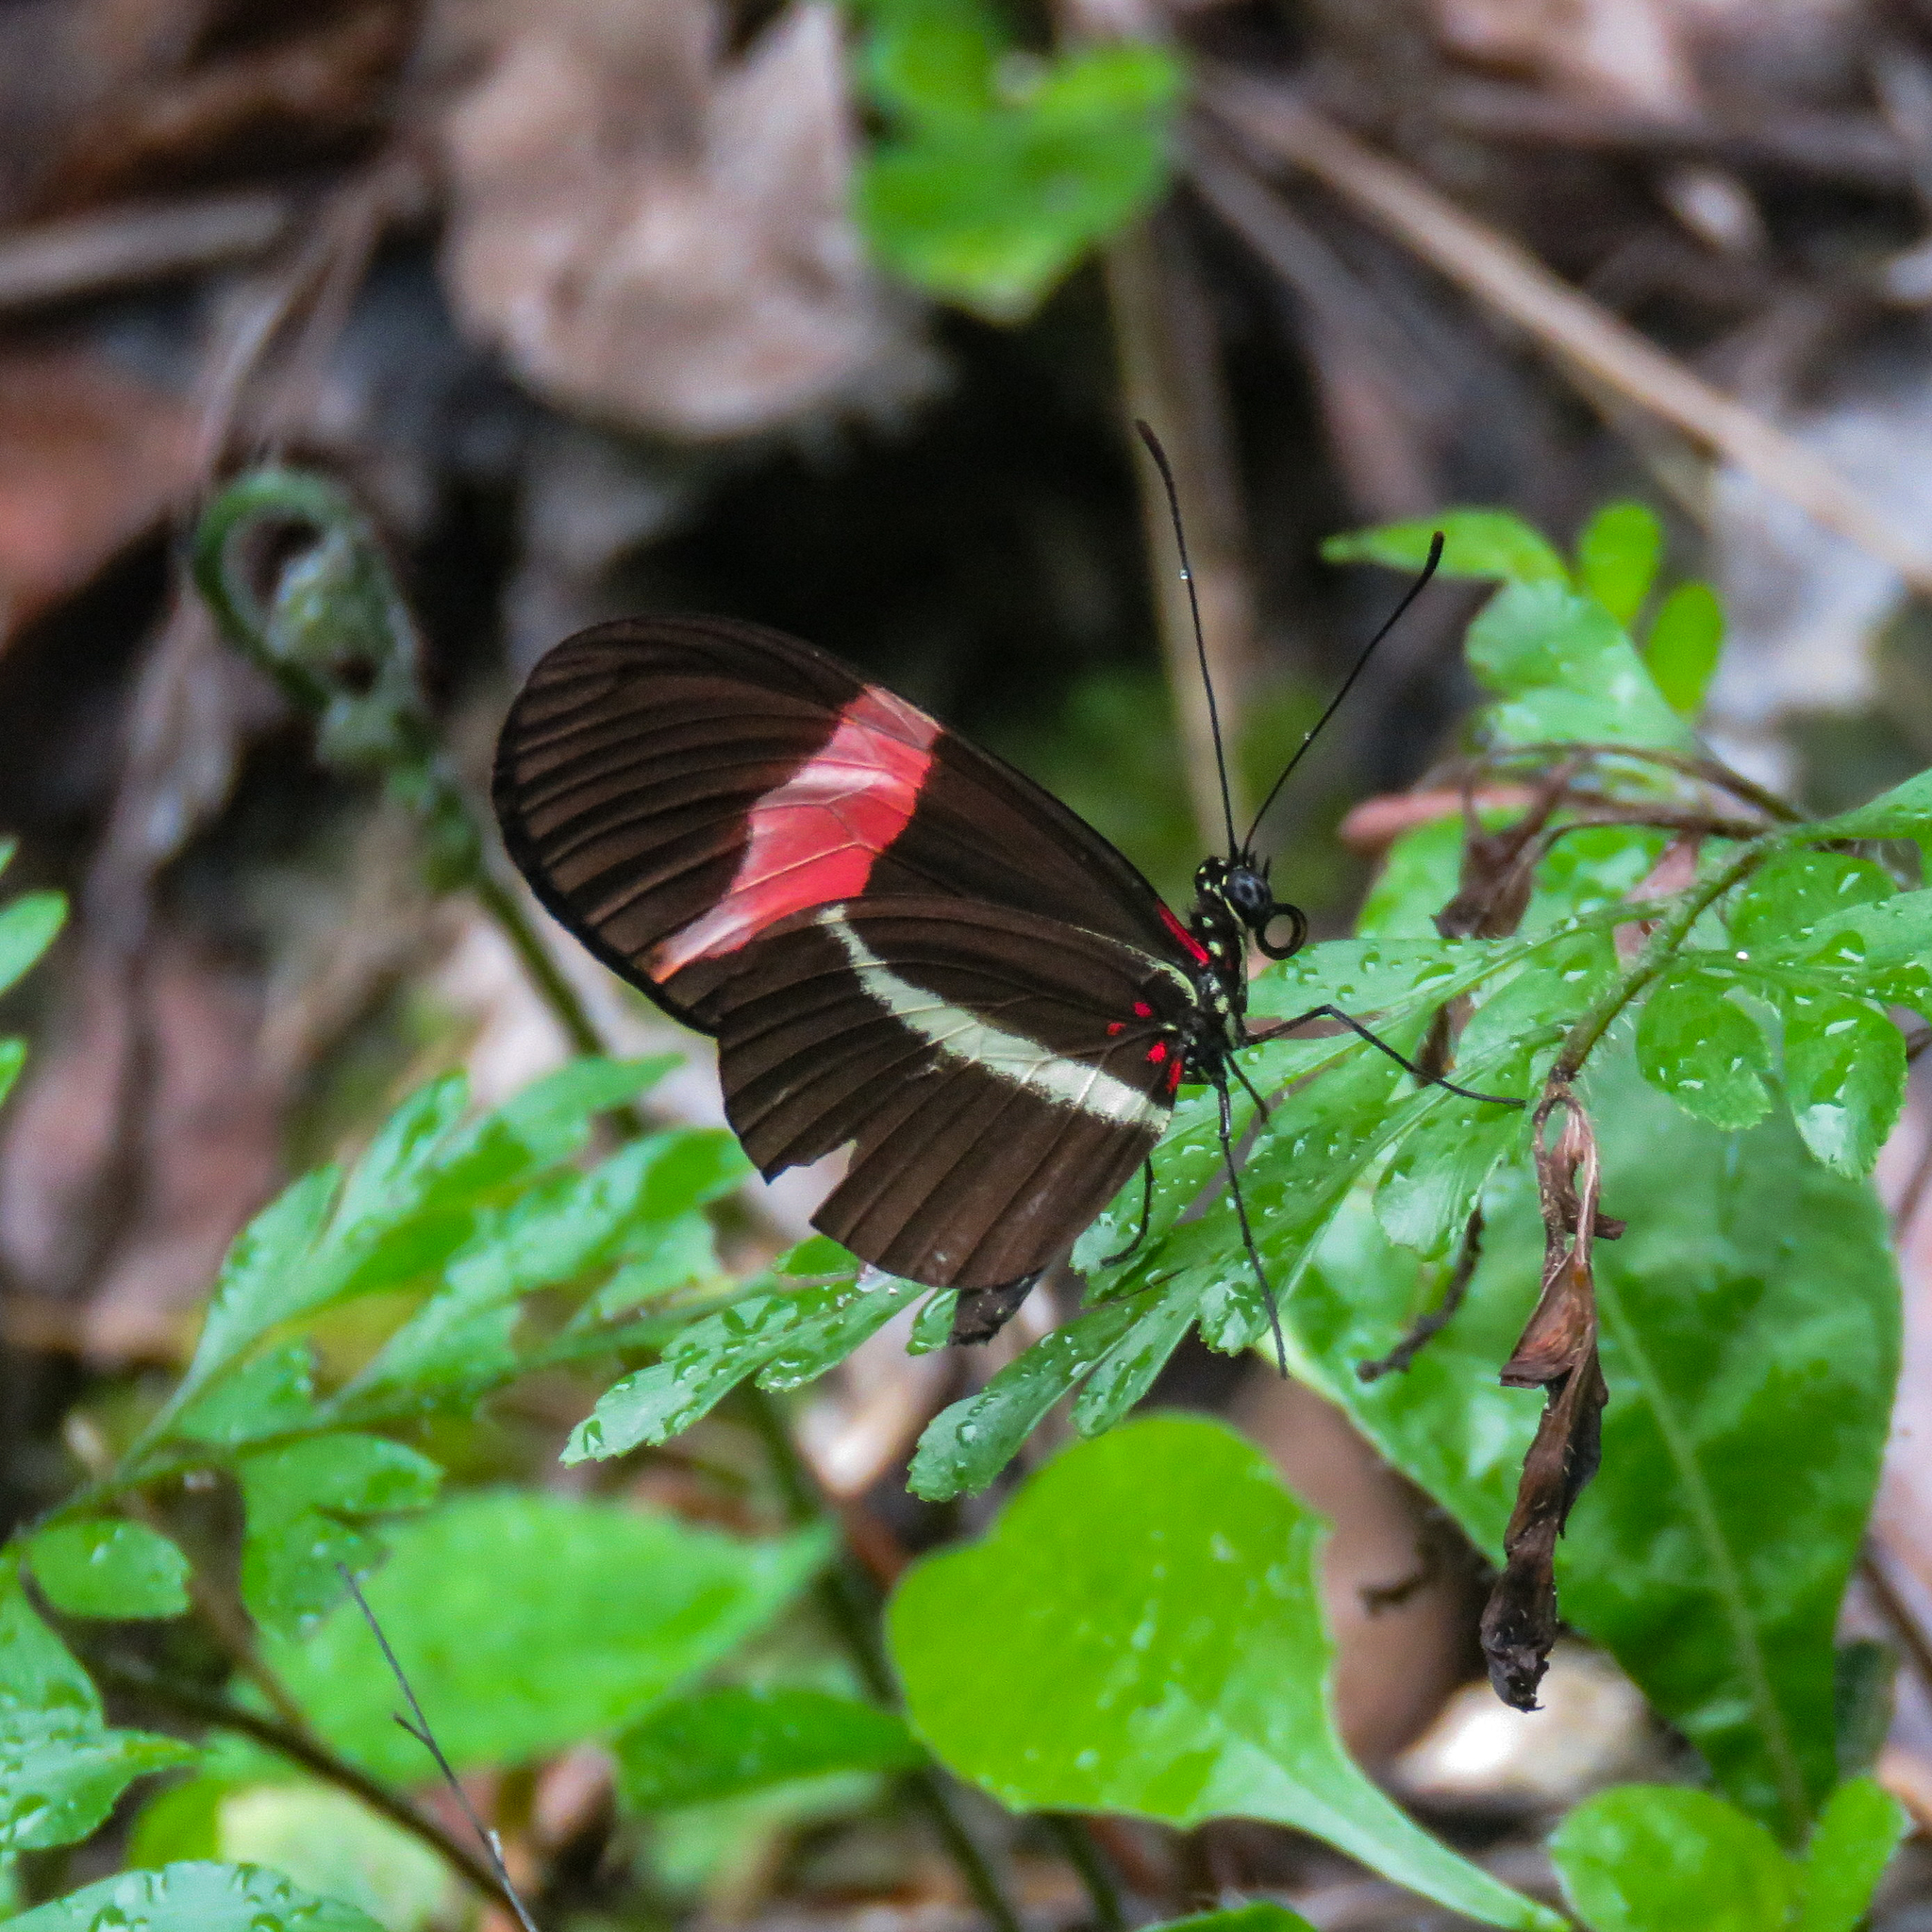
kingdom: Animalia
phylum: Arthropoda
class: Insecta
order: Lepidoptera
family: Nymphalidae
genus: Tirumala
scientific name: Tirumala petiverana
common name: Blue monarch
